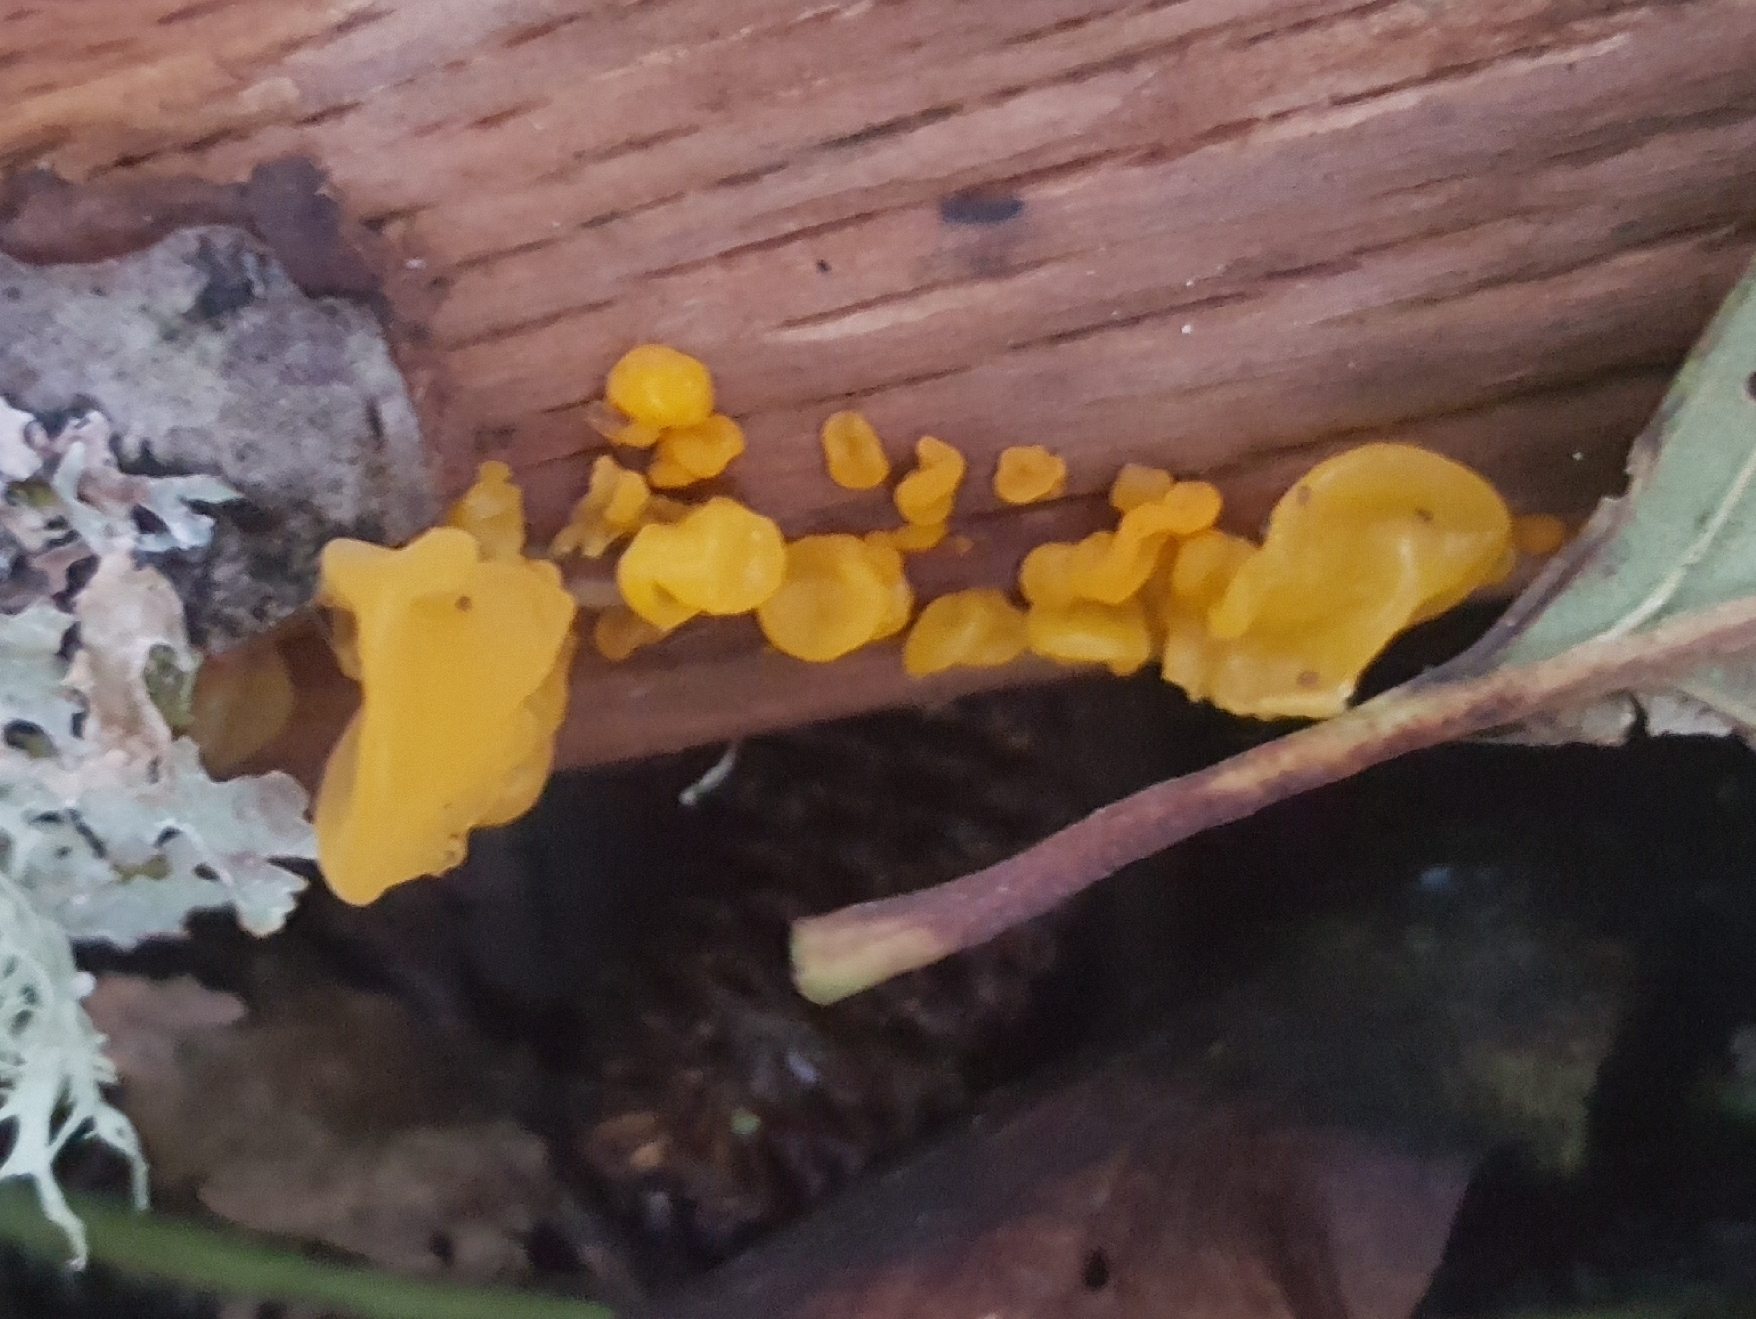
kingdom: Fungi
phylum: Basidiomycota
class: Dacrymycetes
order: Dacrymycetales
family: Dacrymycetaceae
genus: Dacrymyces
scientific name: Dacrymyces chrysospermus
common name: Orange jelly spot
